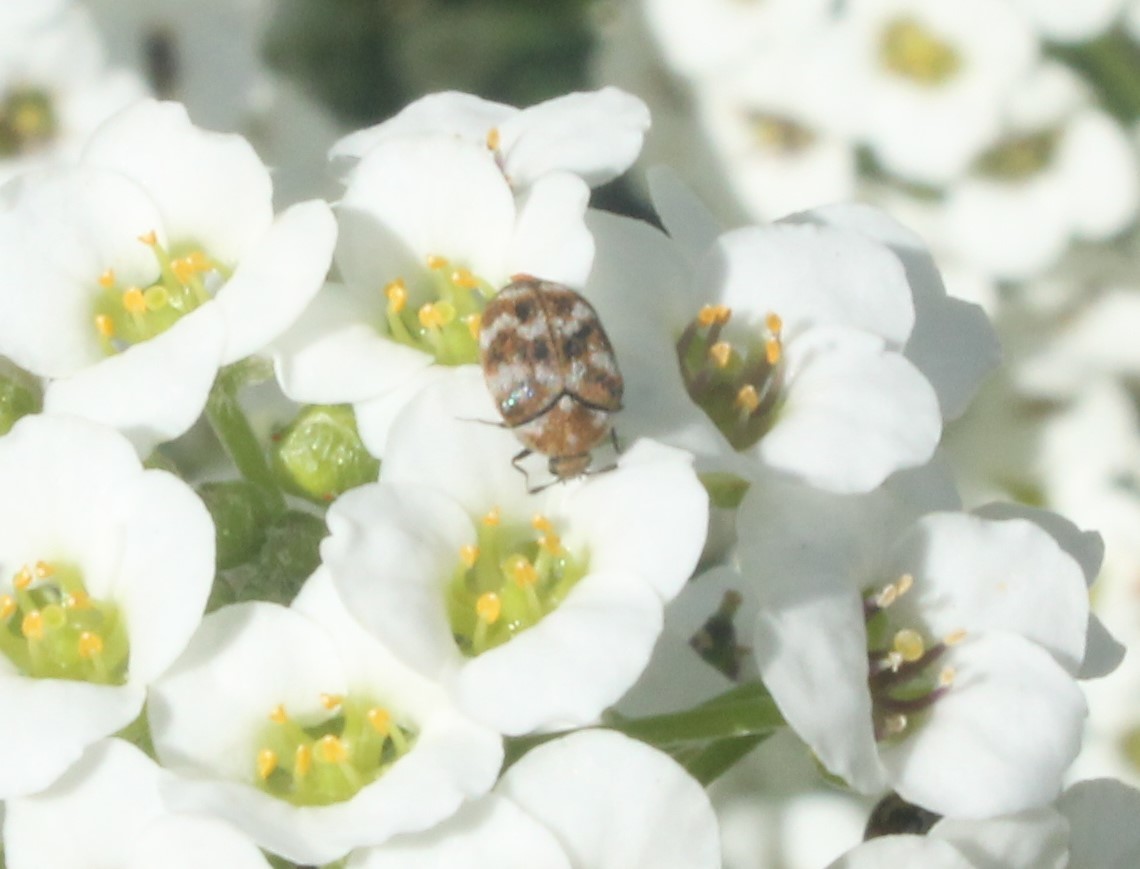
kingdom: Animalia
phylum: Arthropoda
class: Insecta
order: Coleoptera
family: Dermestidae
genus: Anthrenus
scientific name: Anthrenus verbasci
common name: Varied carpet beetle
